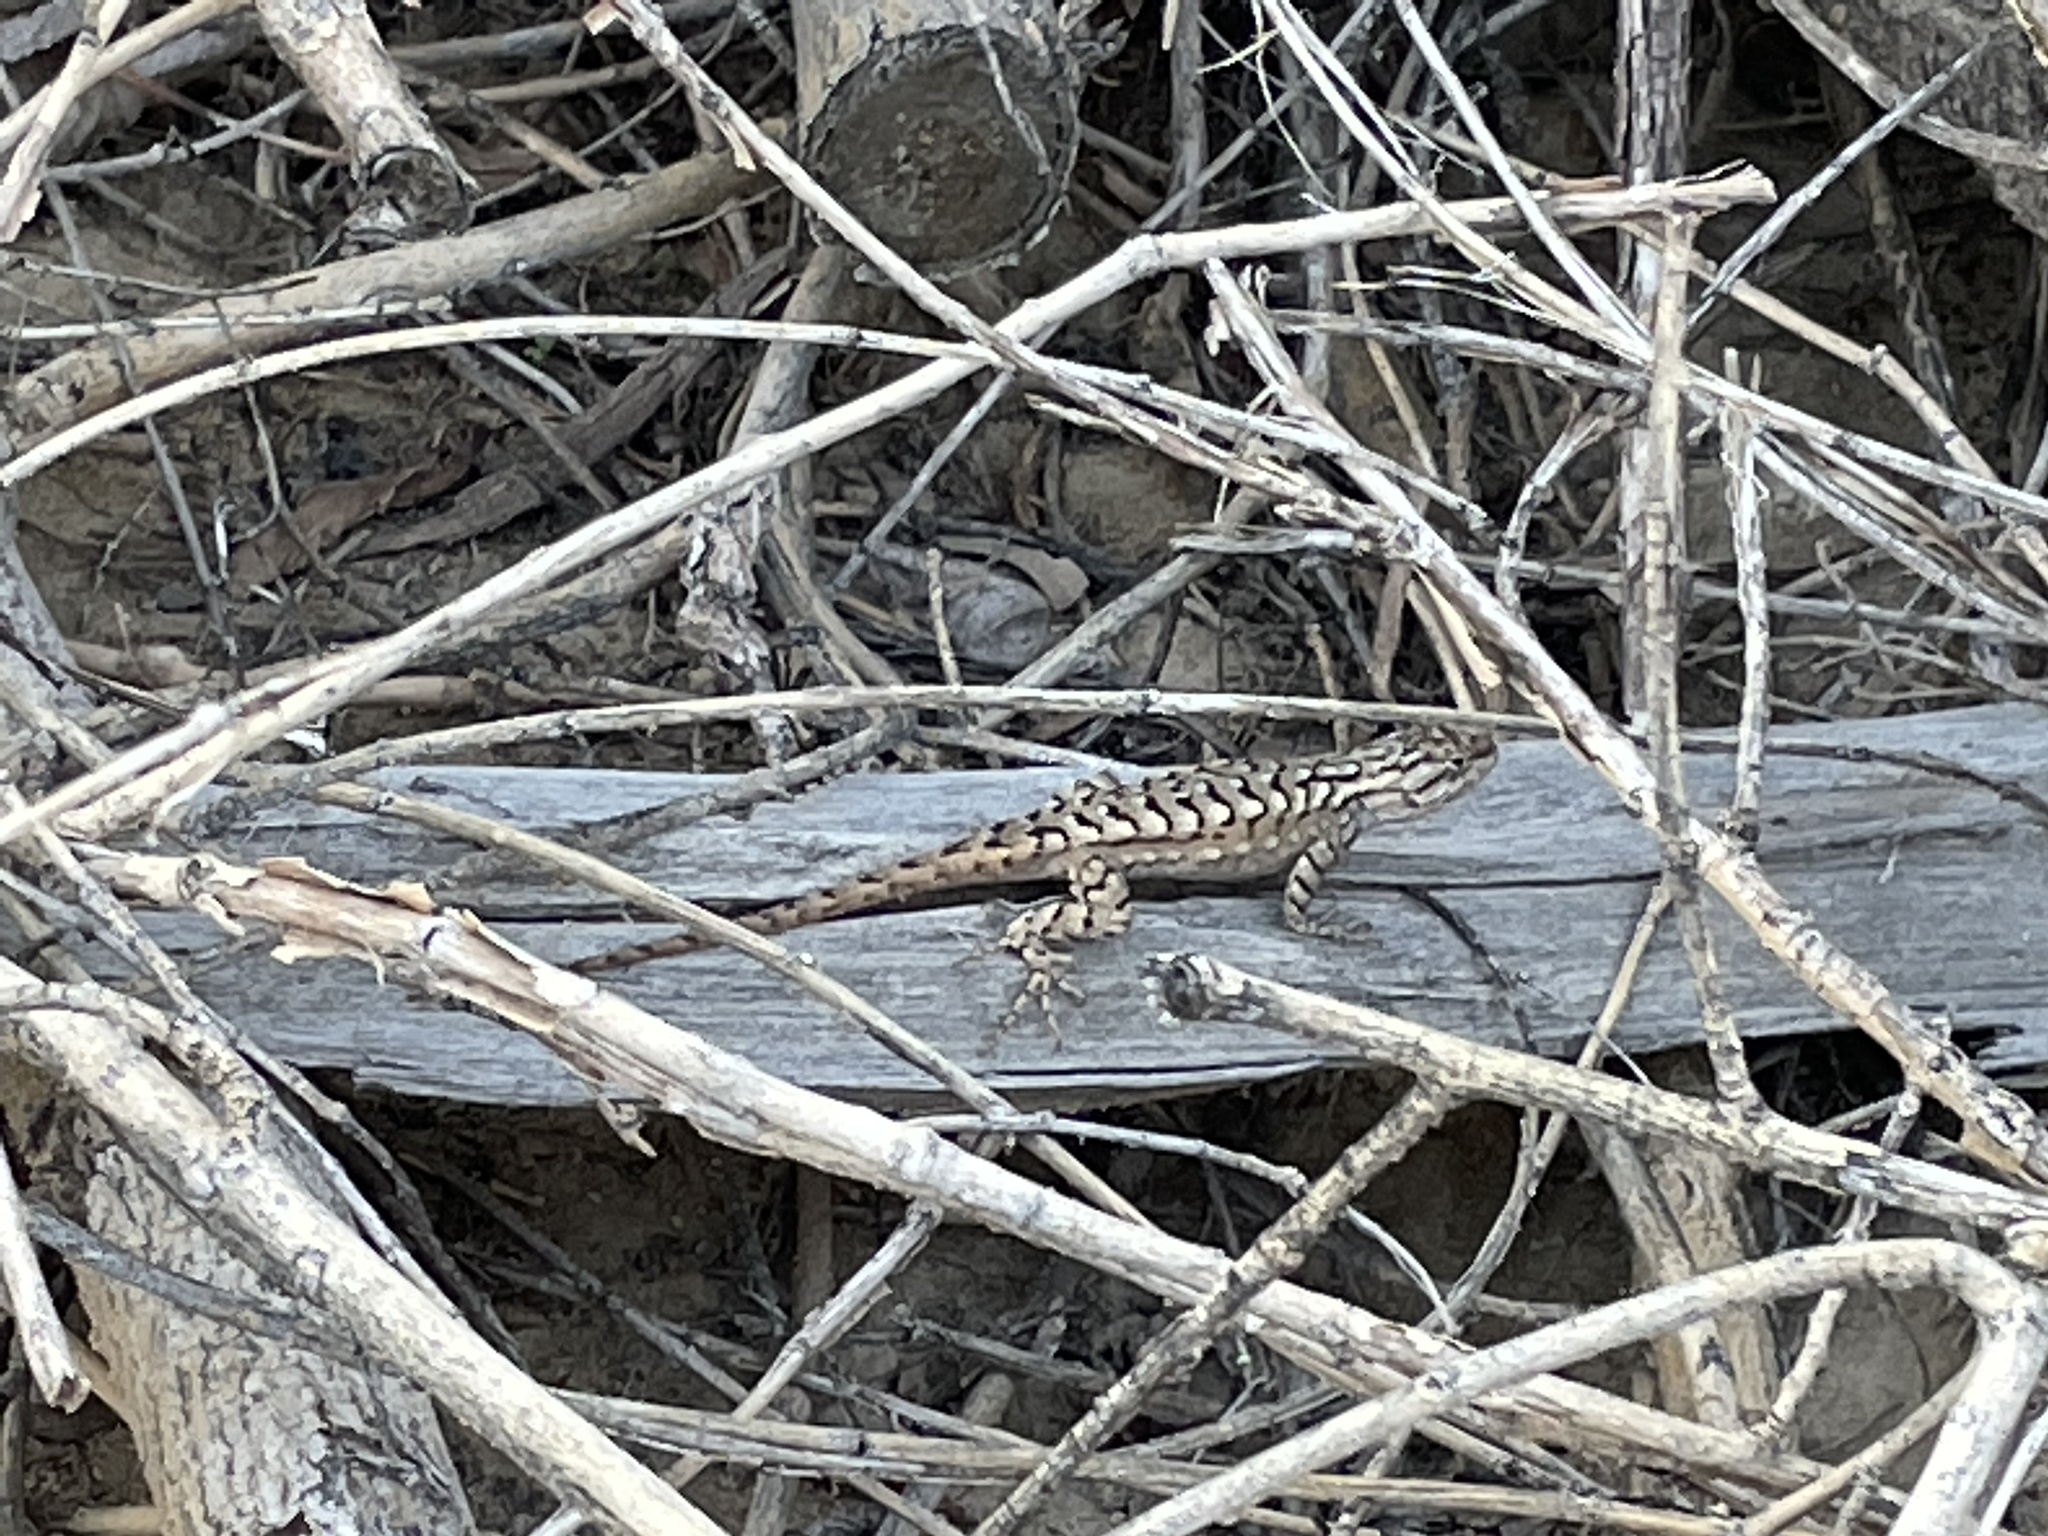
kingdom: Animalia
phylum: Chordata
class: Squamata
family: Phrynosomatidae
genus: Sceloporus
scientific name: Sceloporus tristichus
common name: Plateau fence lizard
